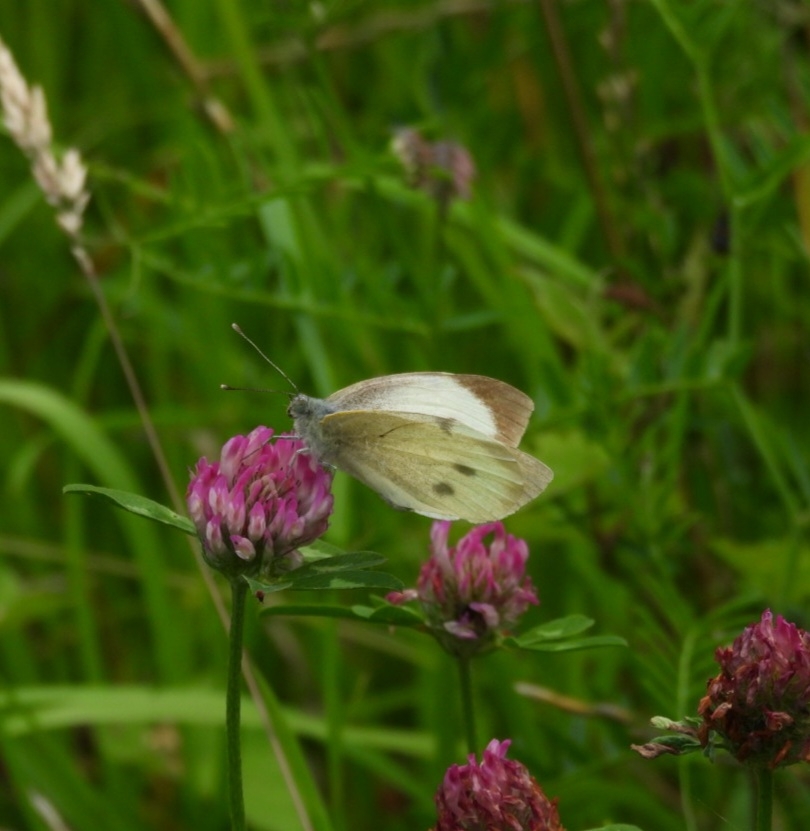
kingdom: Animalia
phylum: Arthropoda
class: Insecta
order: Lepidoptera
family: Pieridae
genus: Pieris
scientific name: Pieris brassicae
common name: Large white
